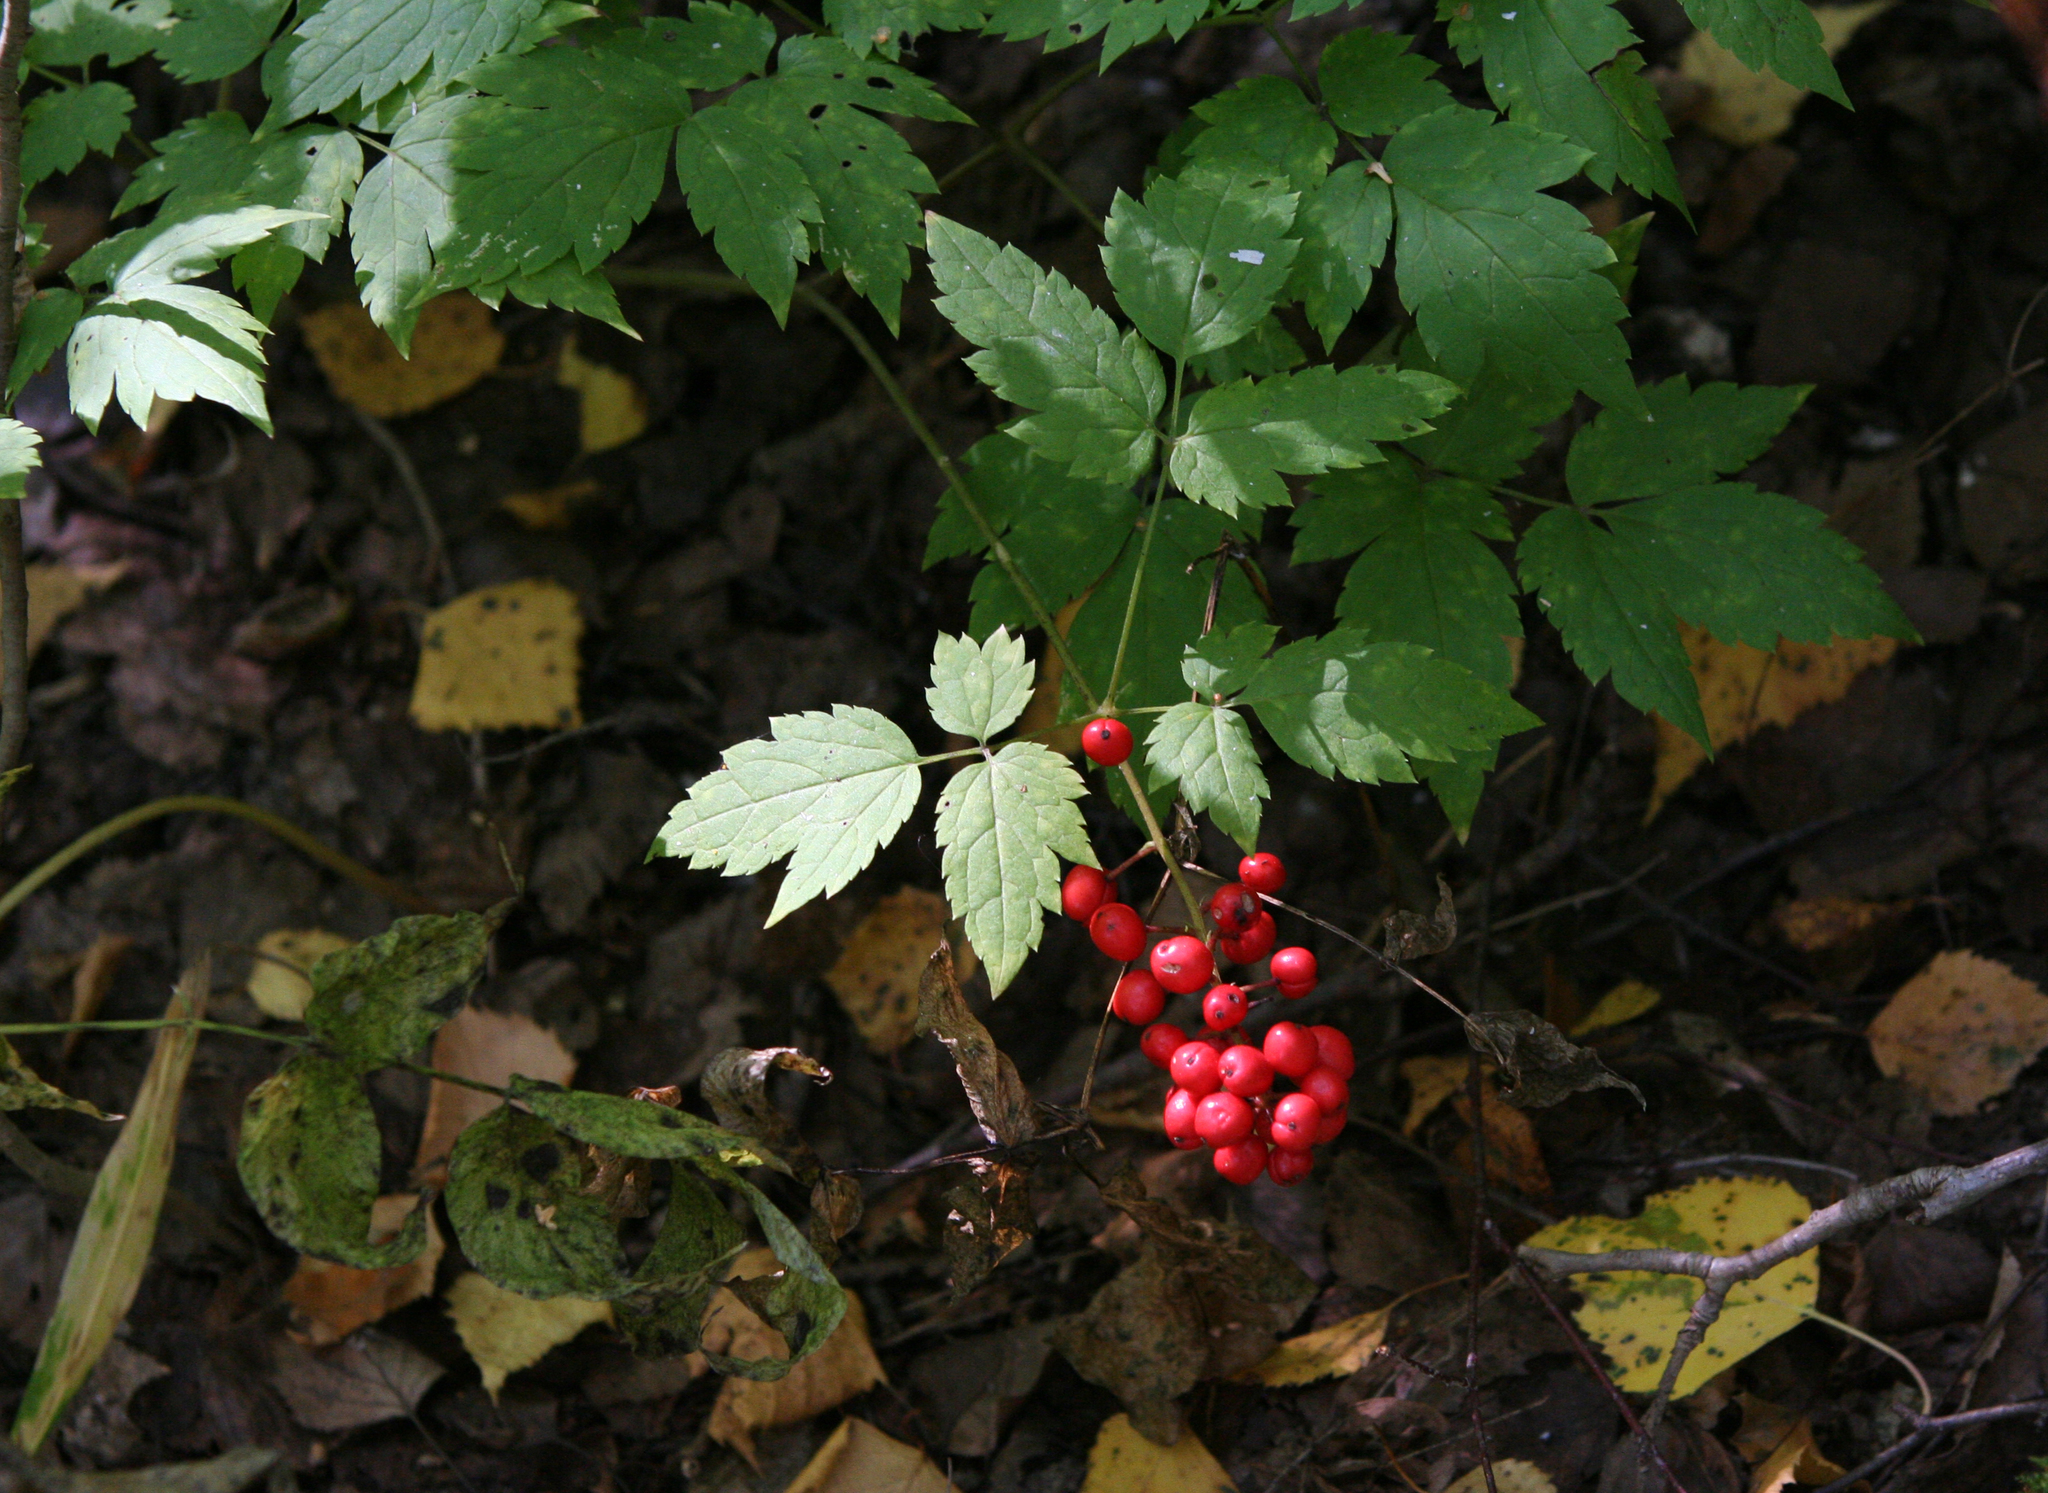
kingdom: Plantae
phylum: Tracheophyta
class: Magnoliopsida
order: Ranunculales
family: Ranunculaceae
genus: Actaea
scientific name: Actaea erythrocarpa
